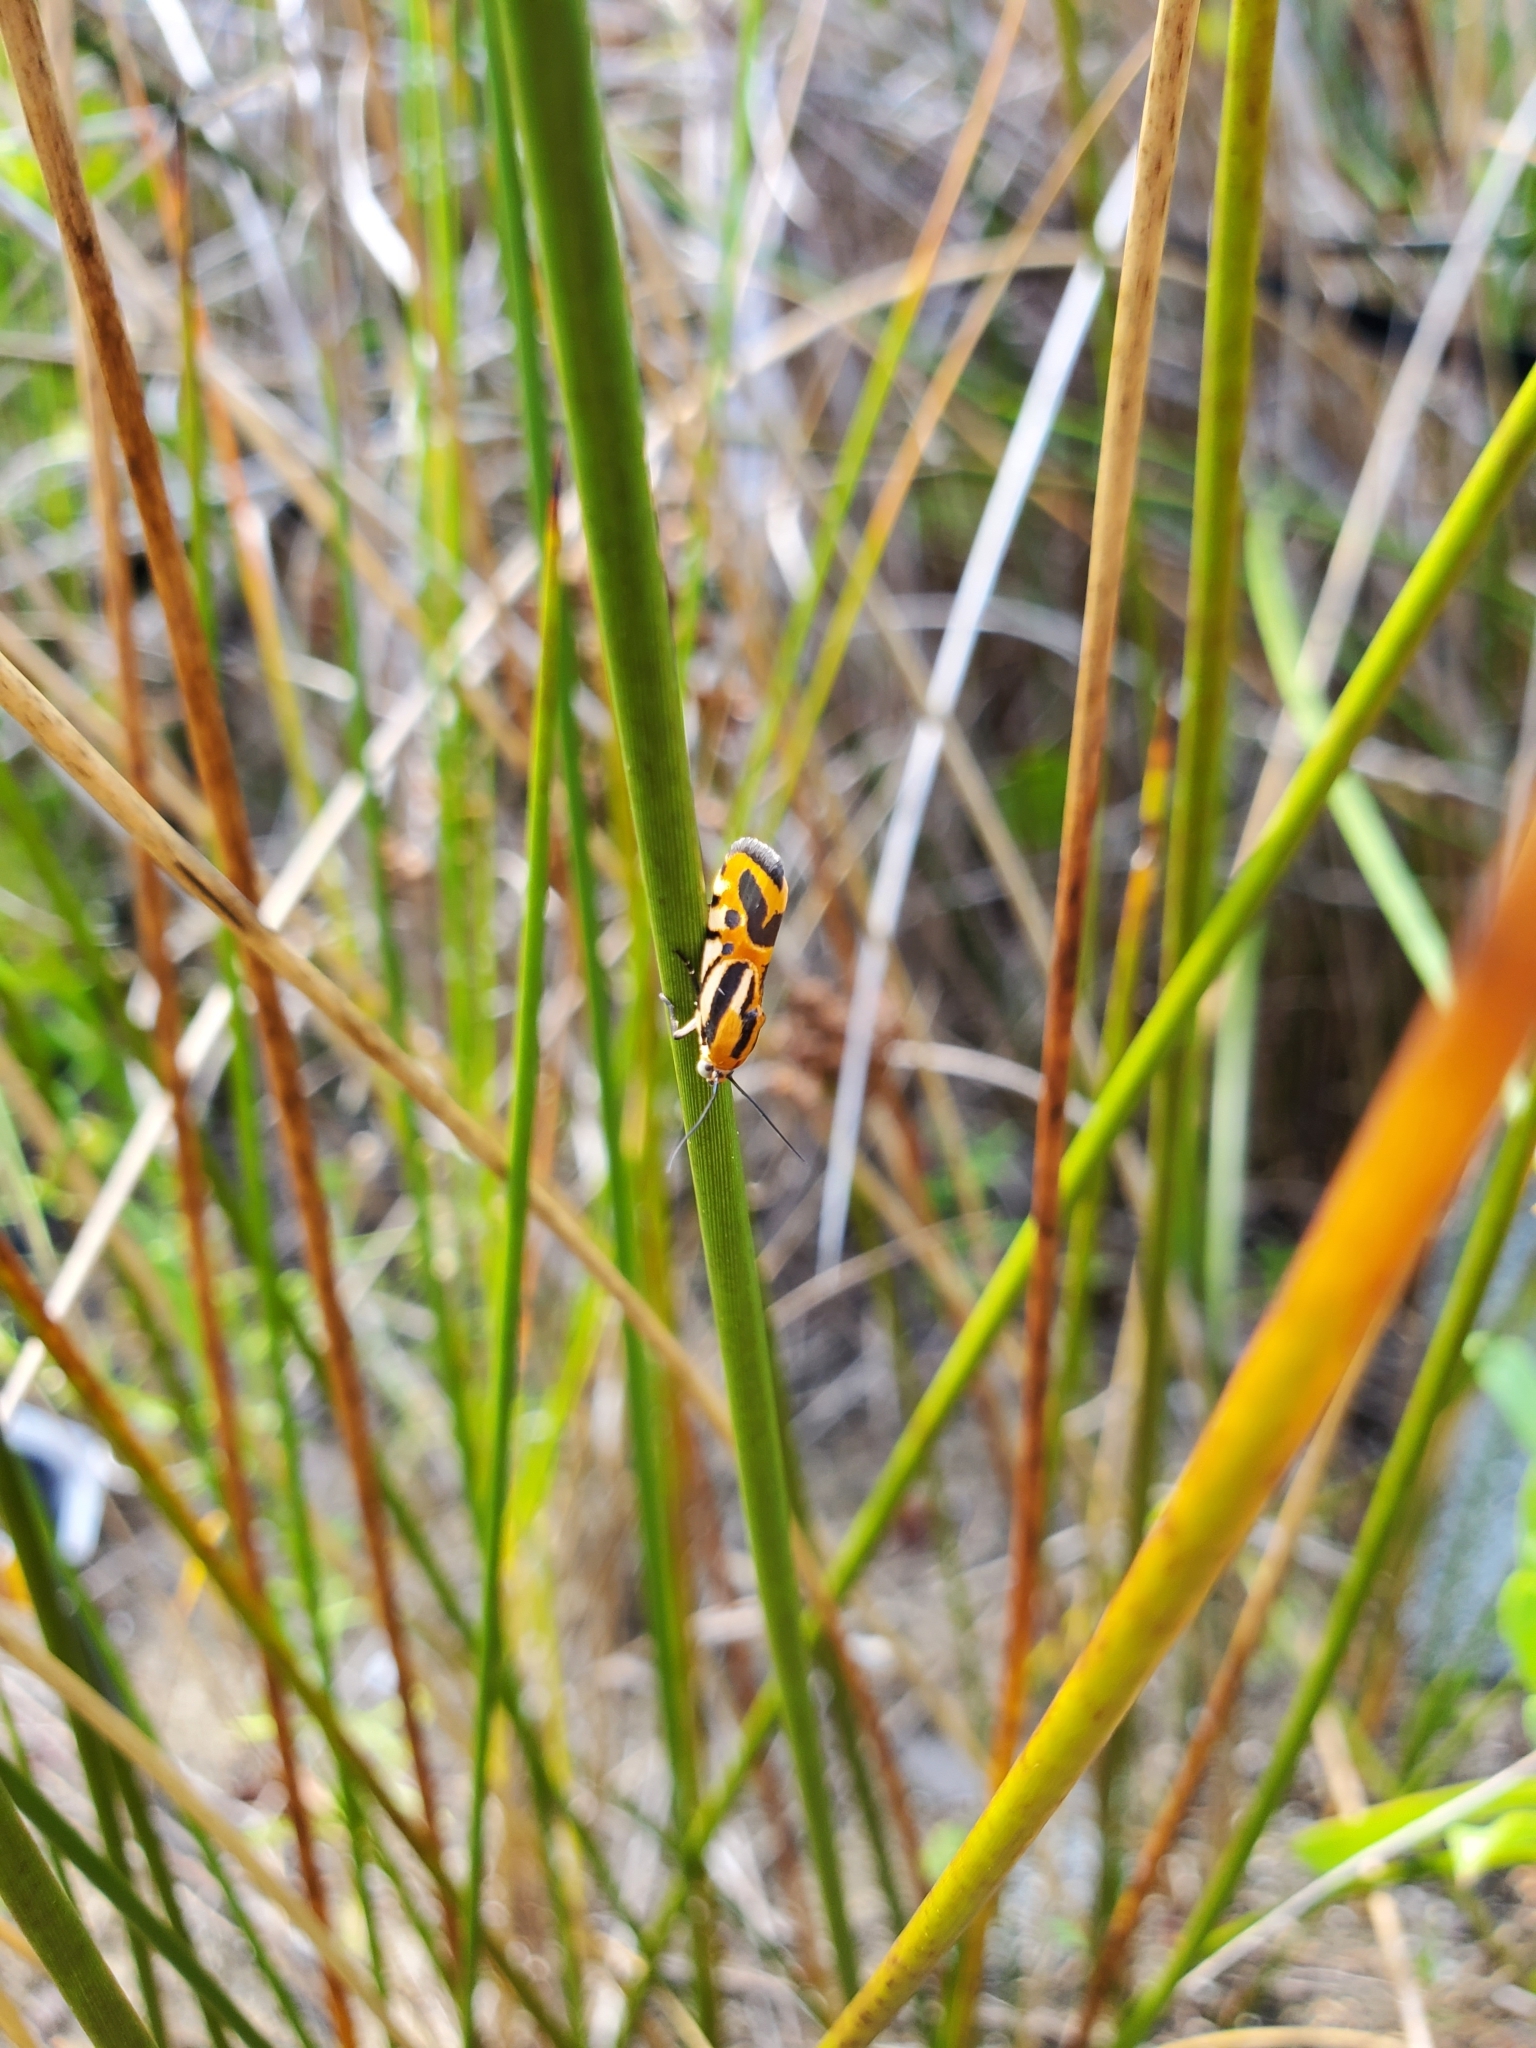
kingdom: Animalia
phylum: Arthropoda
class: Insecta
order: Lepidoptera
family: Noctuidae
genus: Acontia
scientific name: Acontia onagrus
